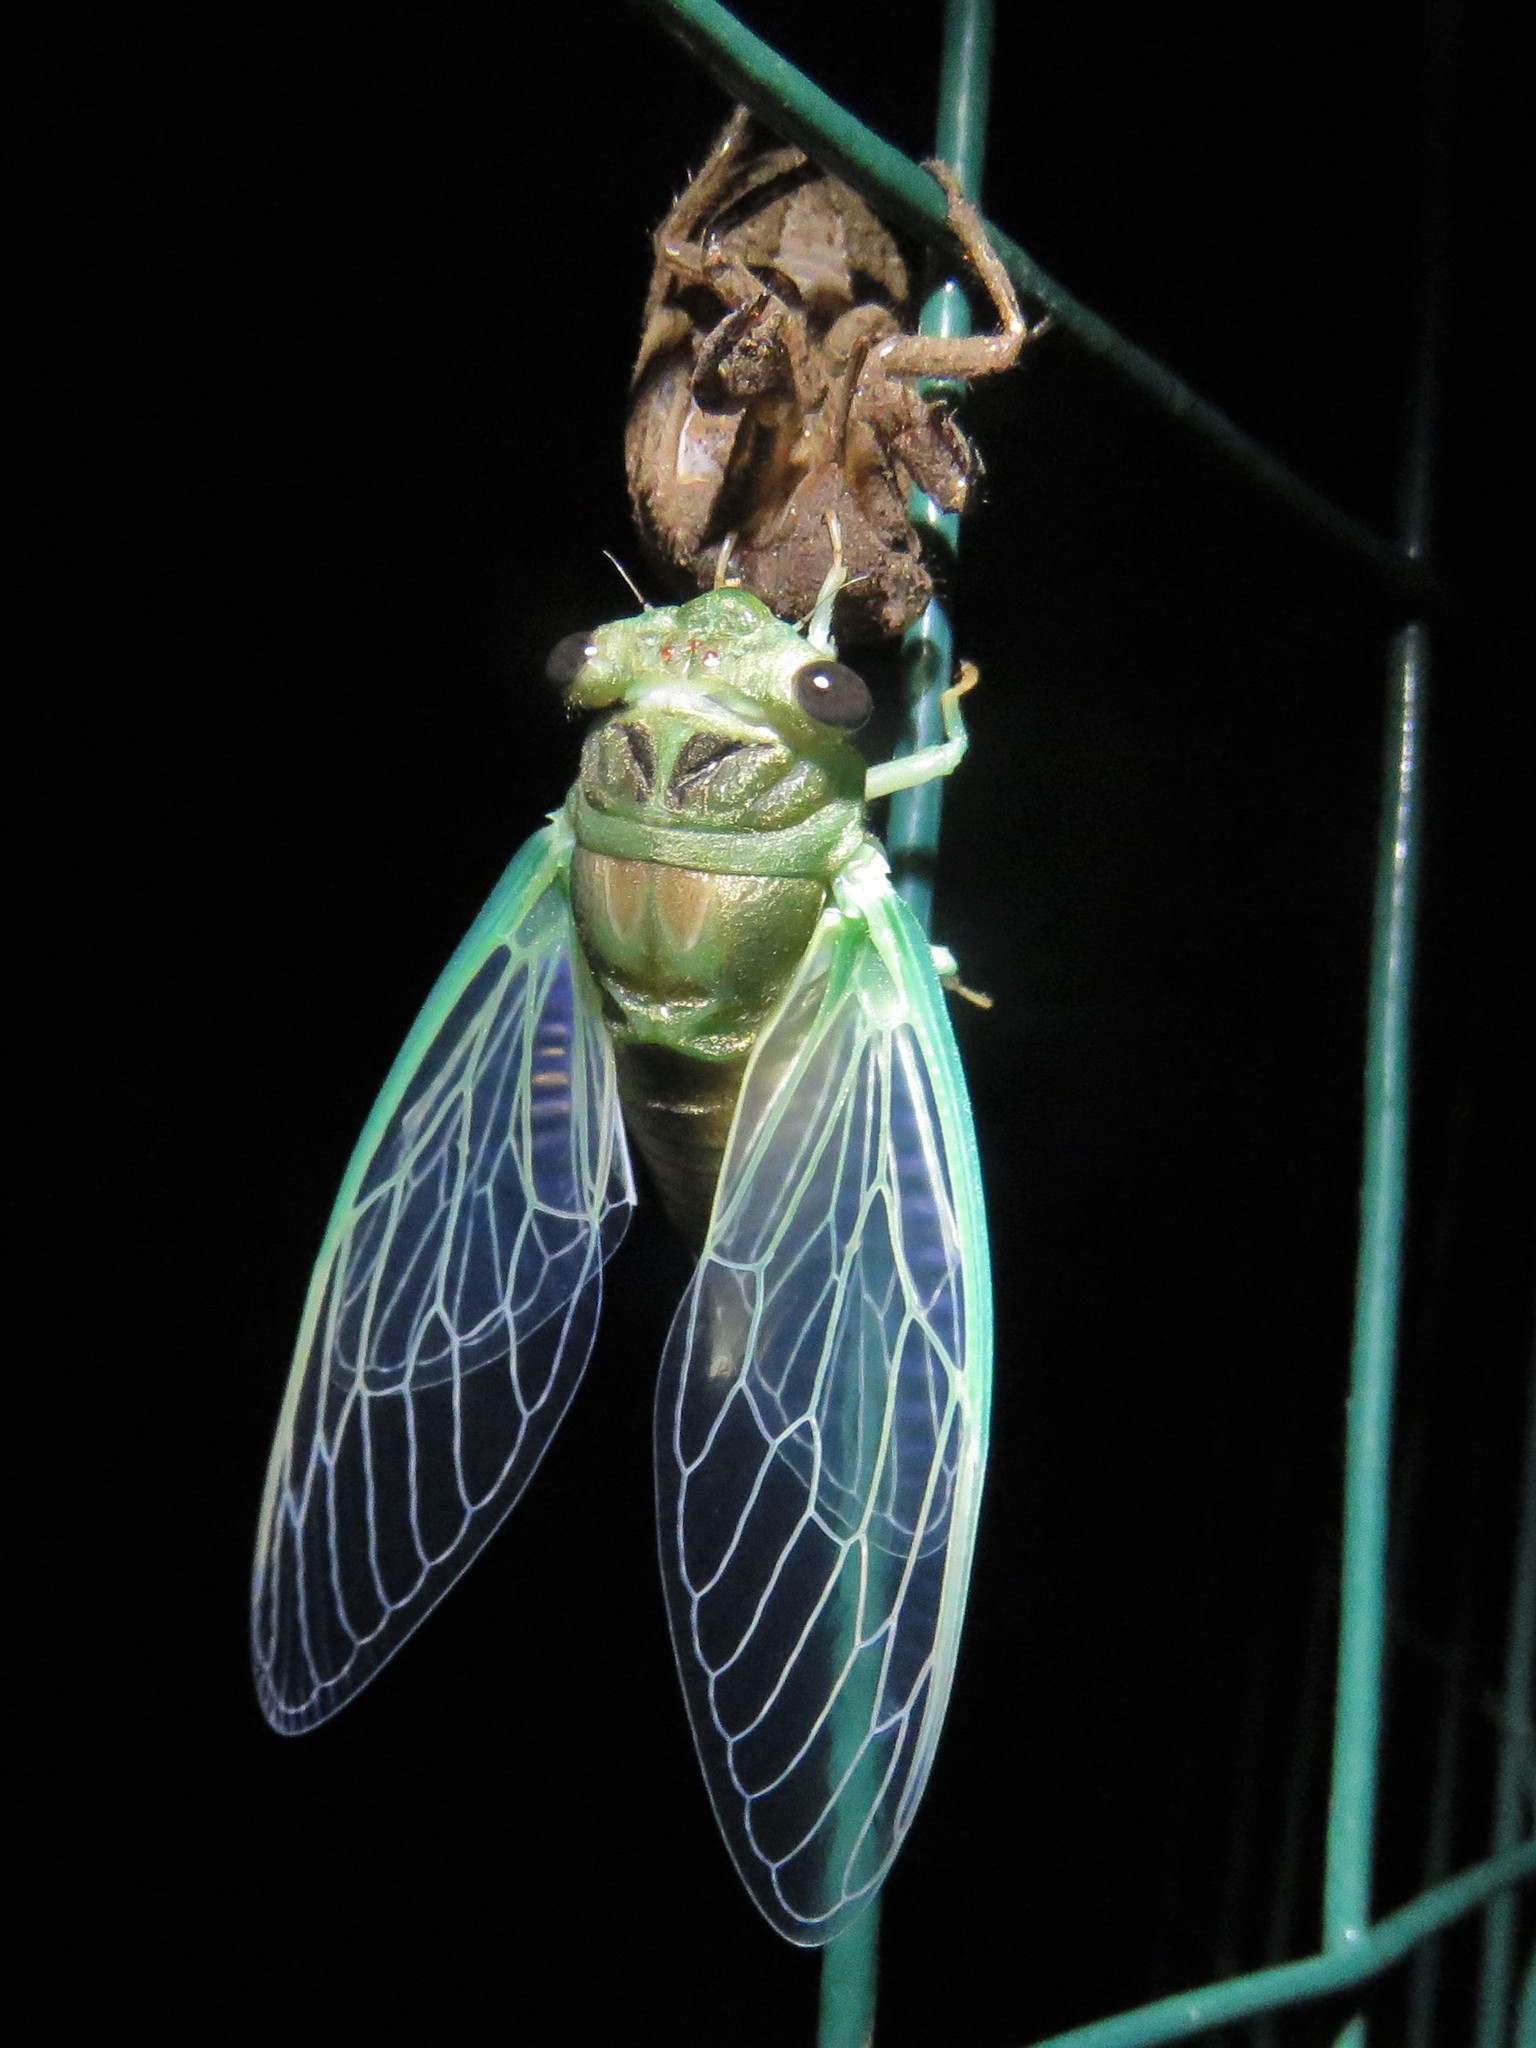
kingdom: Animalia
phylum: Arthropoda
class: Insecta
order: Hemiptera
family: Cicadidae
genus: Neotibicen
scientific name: Neotibicen pruinosus
